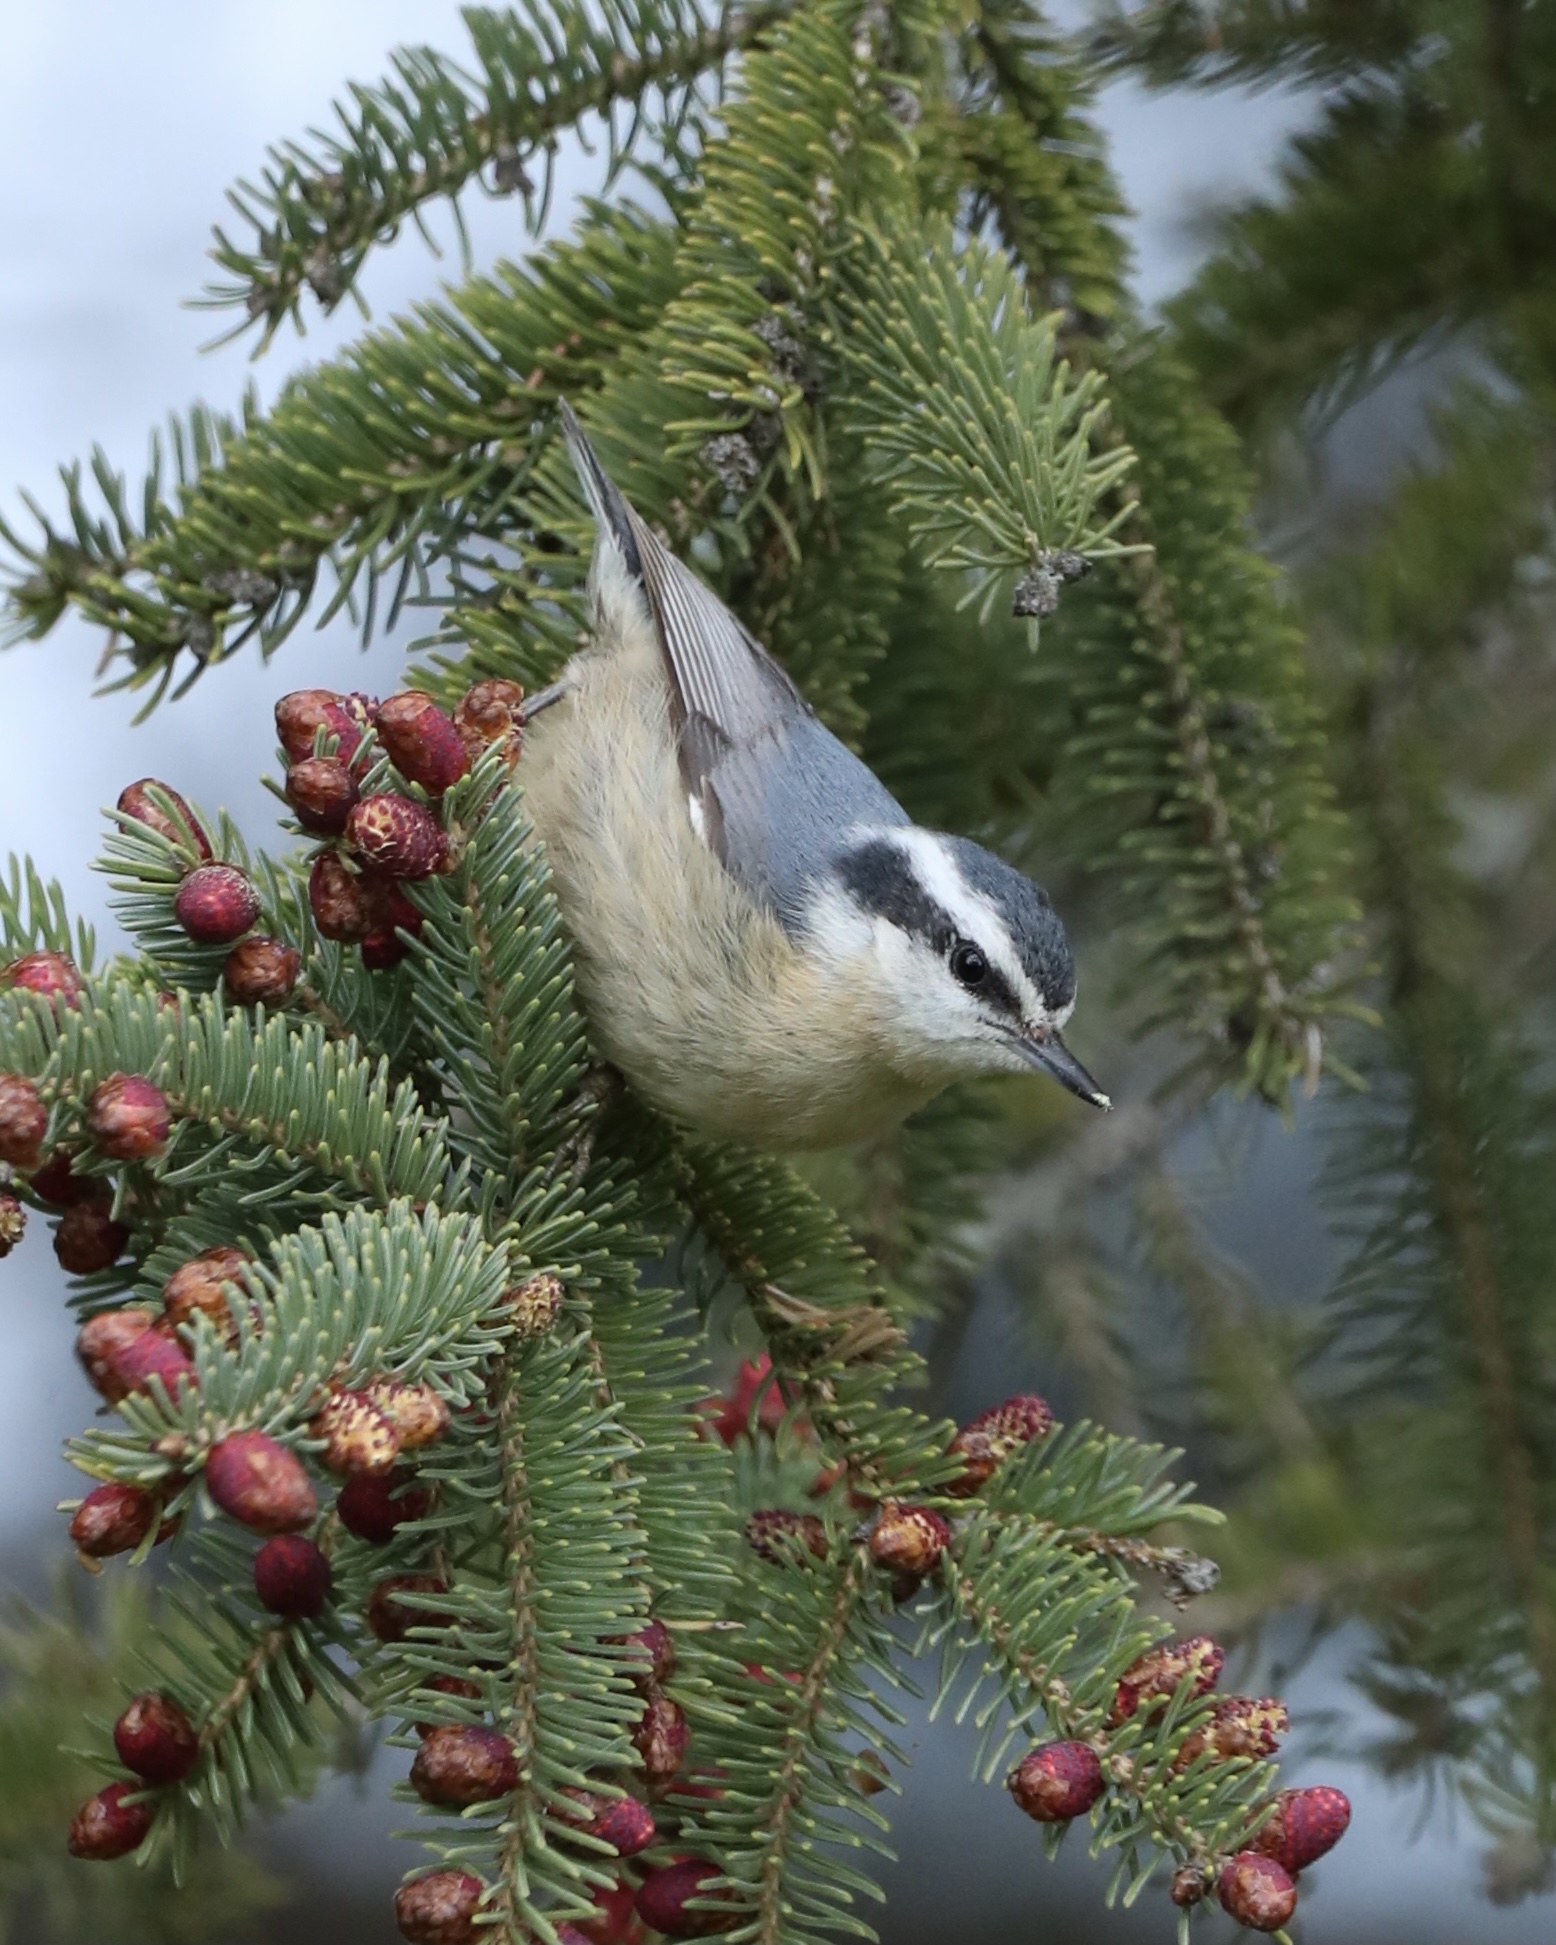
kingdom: Animalia
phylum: Chordata
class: Aves
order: Passeriformes
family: Sittidae
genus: Sitta
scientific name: Sitta canadensis
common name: Red-breasted nuthatch
